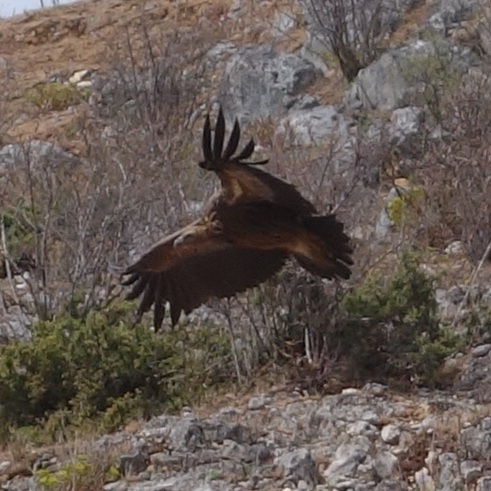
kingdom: Animalia
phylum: Chordata
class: Aves
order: Accipitriformes
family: Accipitridae
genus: Gyps
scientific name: Gyps himalayensis
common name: Himalayan griffon
